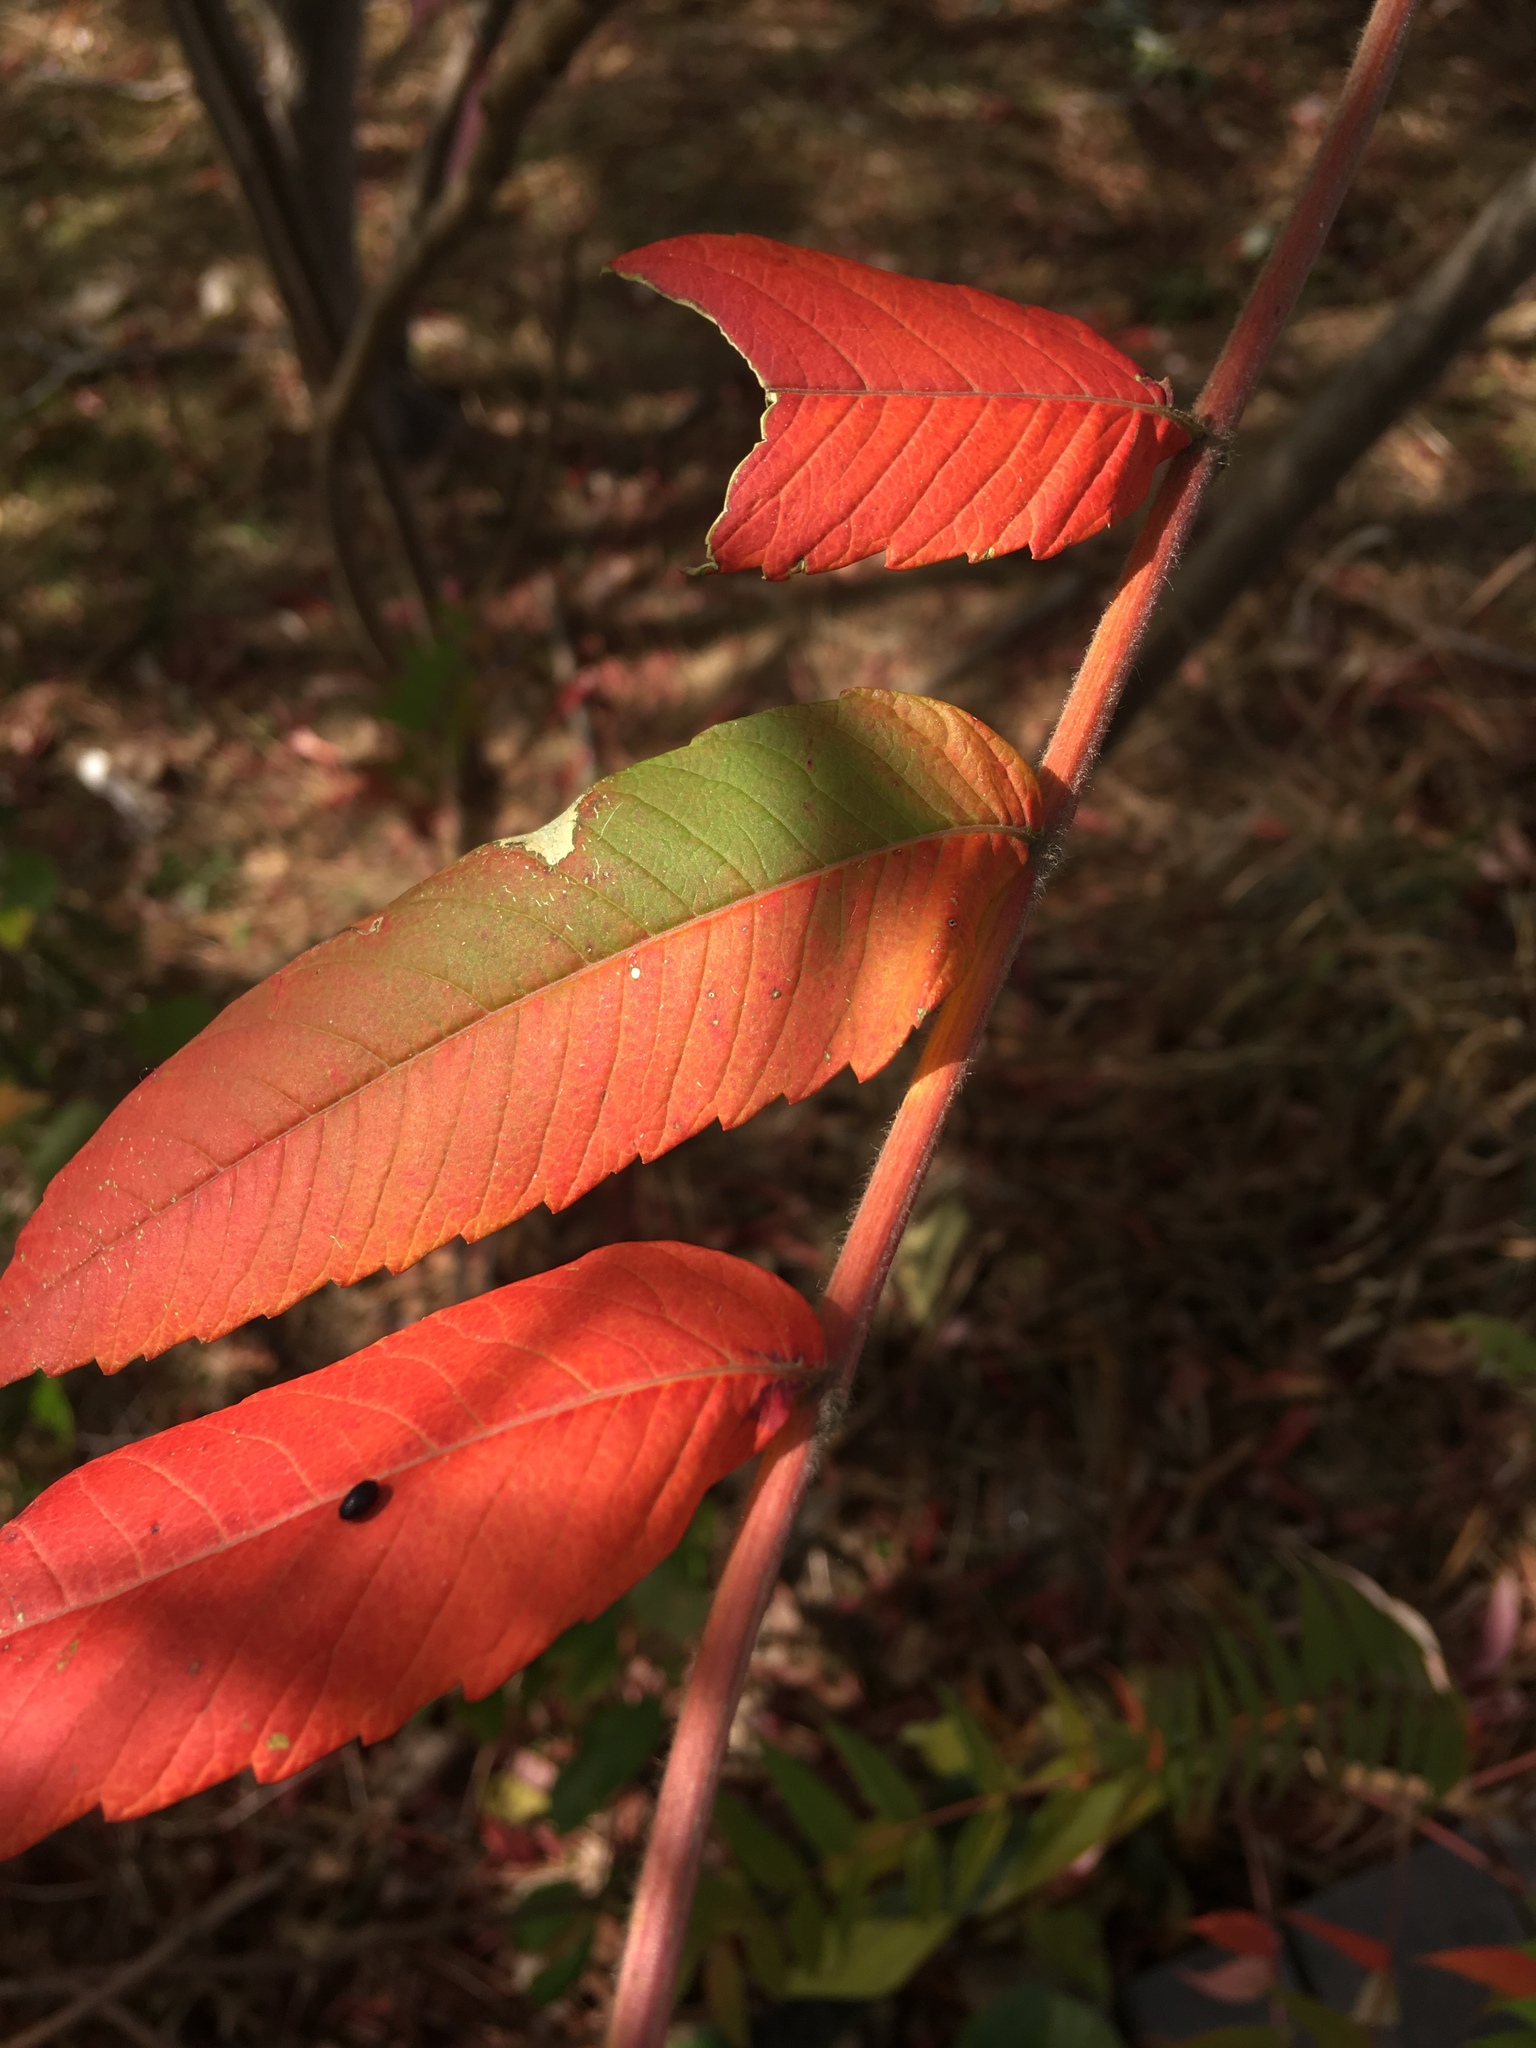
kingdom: Plantae
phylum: Tracheophyta
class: Magnoliopsida
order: Sapindales
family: Anacardiaceae
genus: Rhus
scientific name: Rhus glabra
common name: Scarlet sumac
